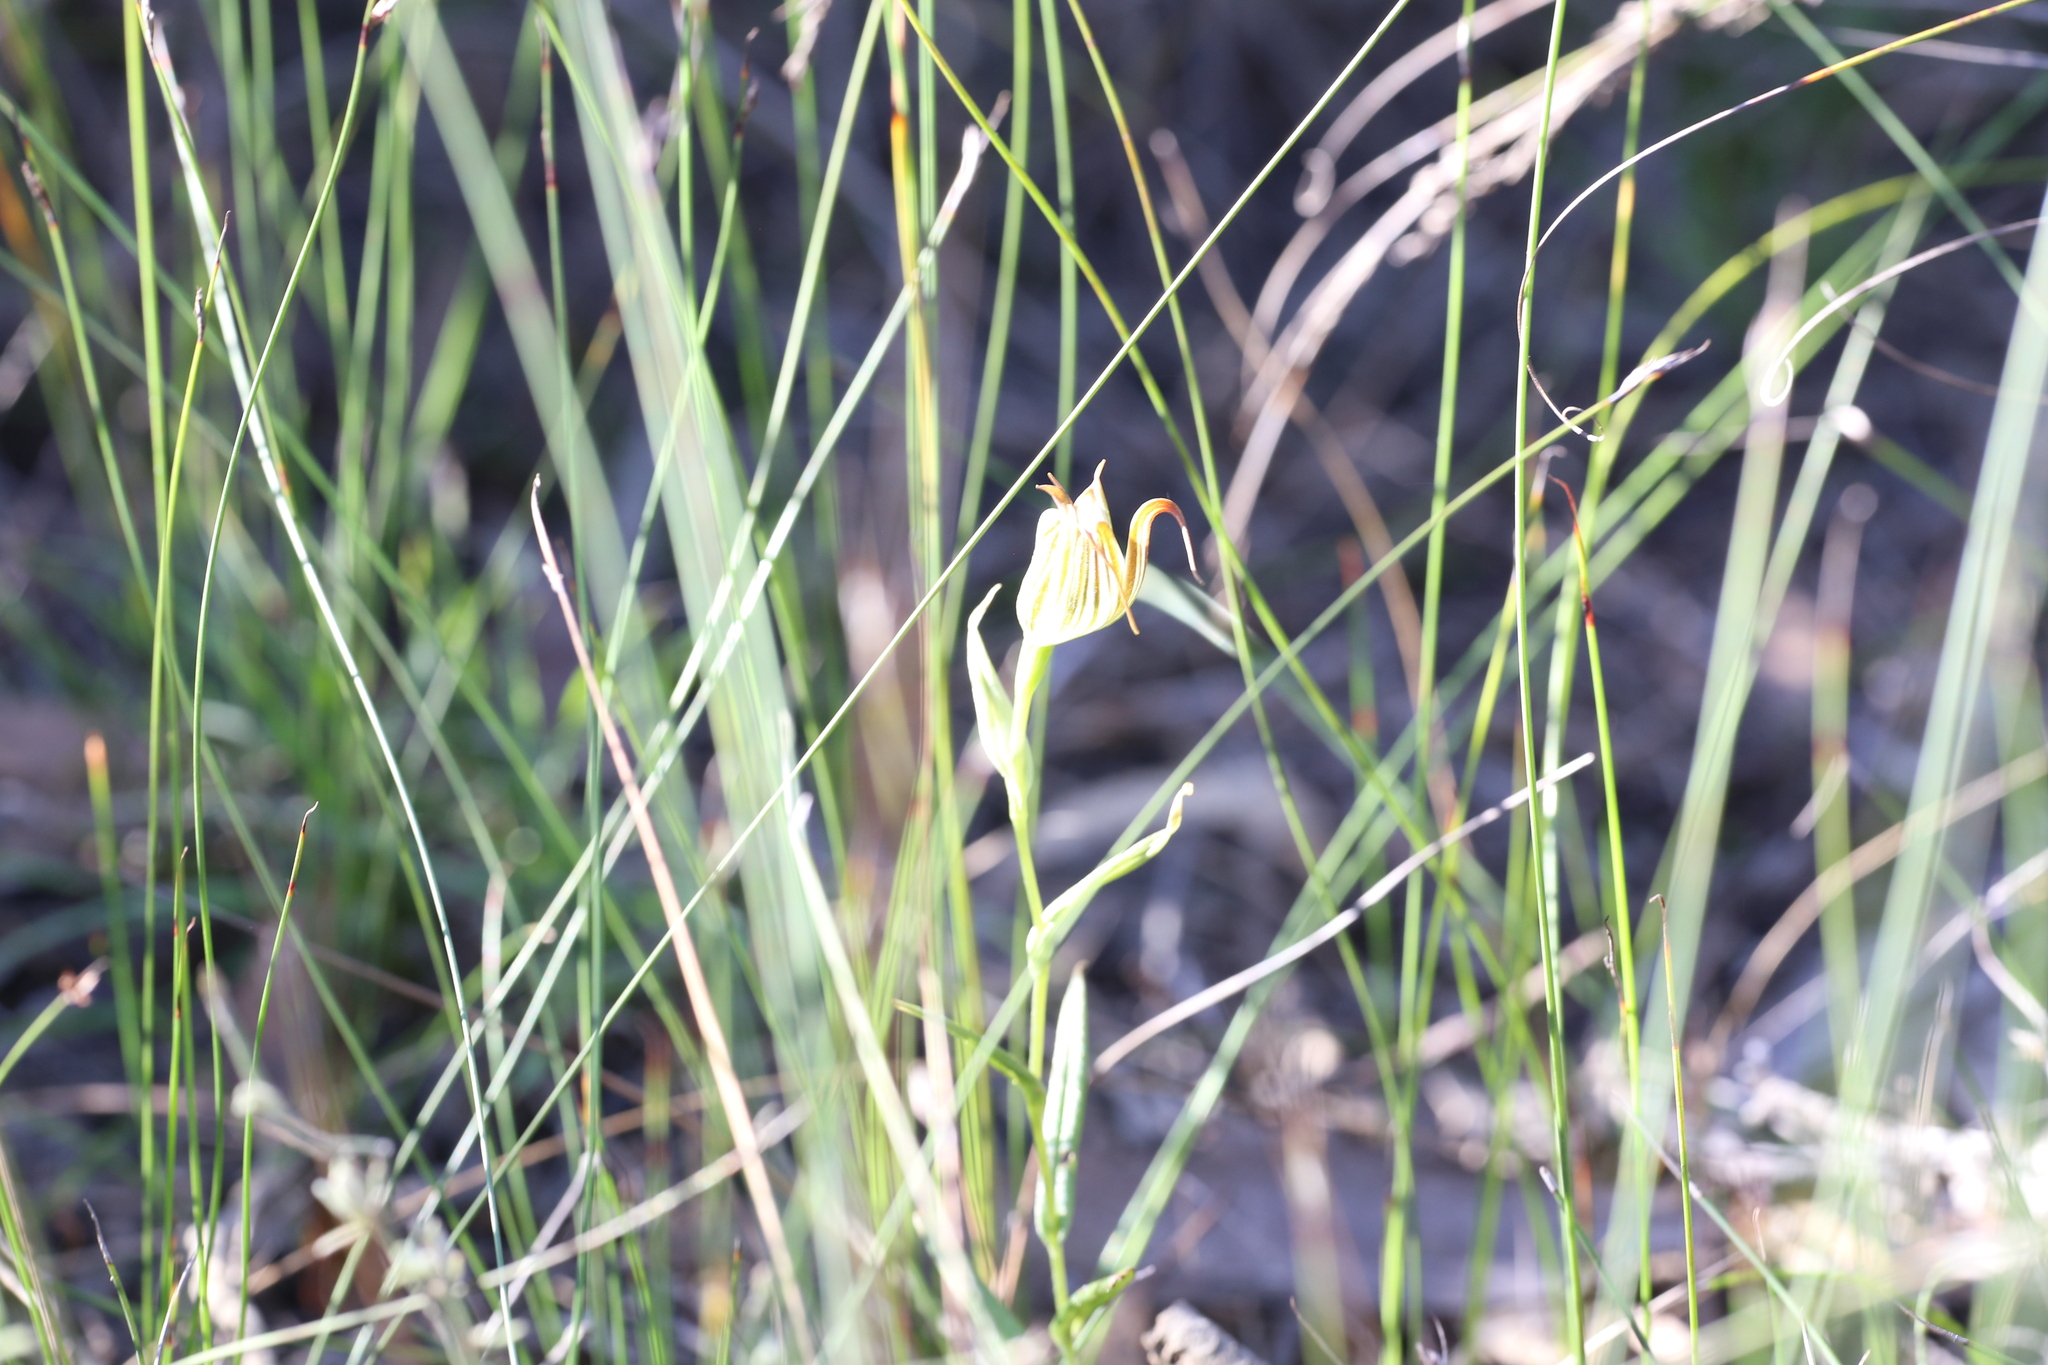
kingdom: Plantae
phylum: Tracheophyta
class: Liliopsida
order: Asparagales
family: Orchidaceae
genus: Pterostylis
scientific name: Pterostylis recurva
